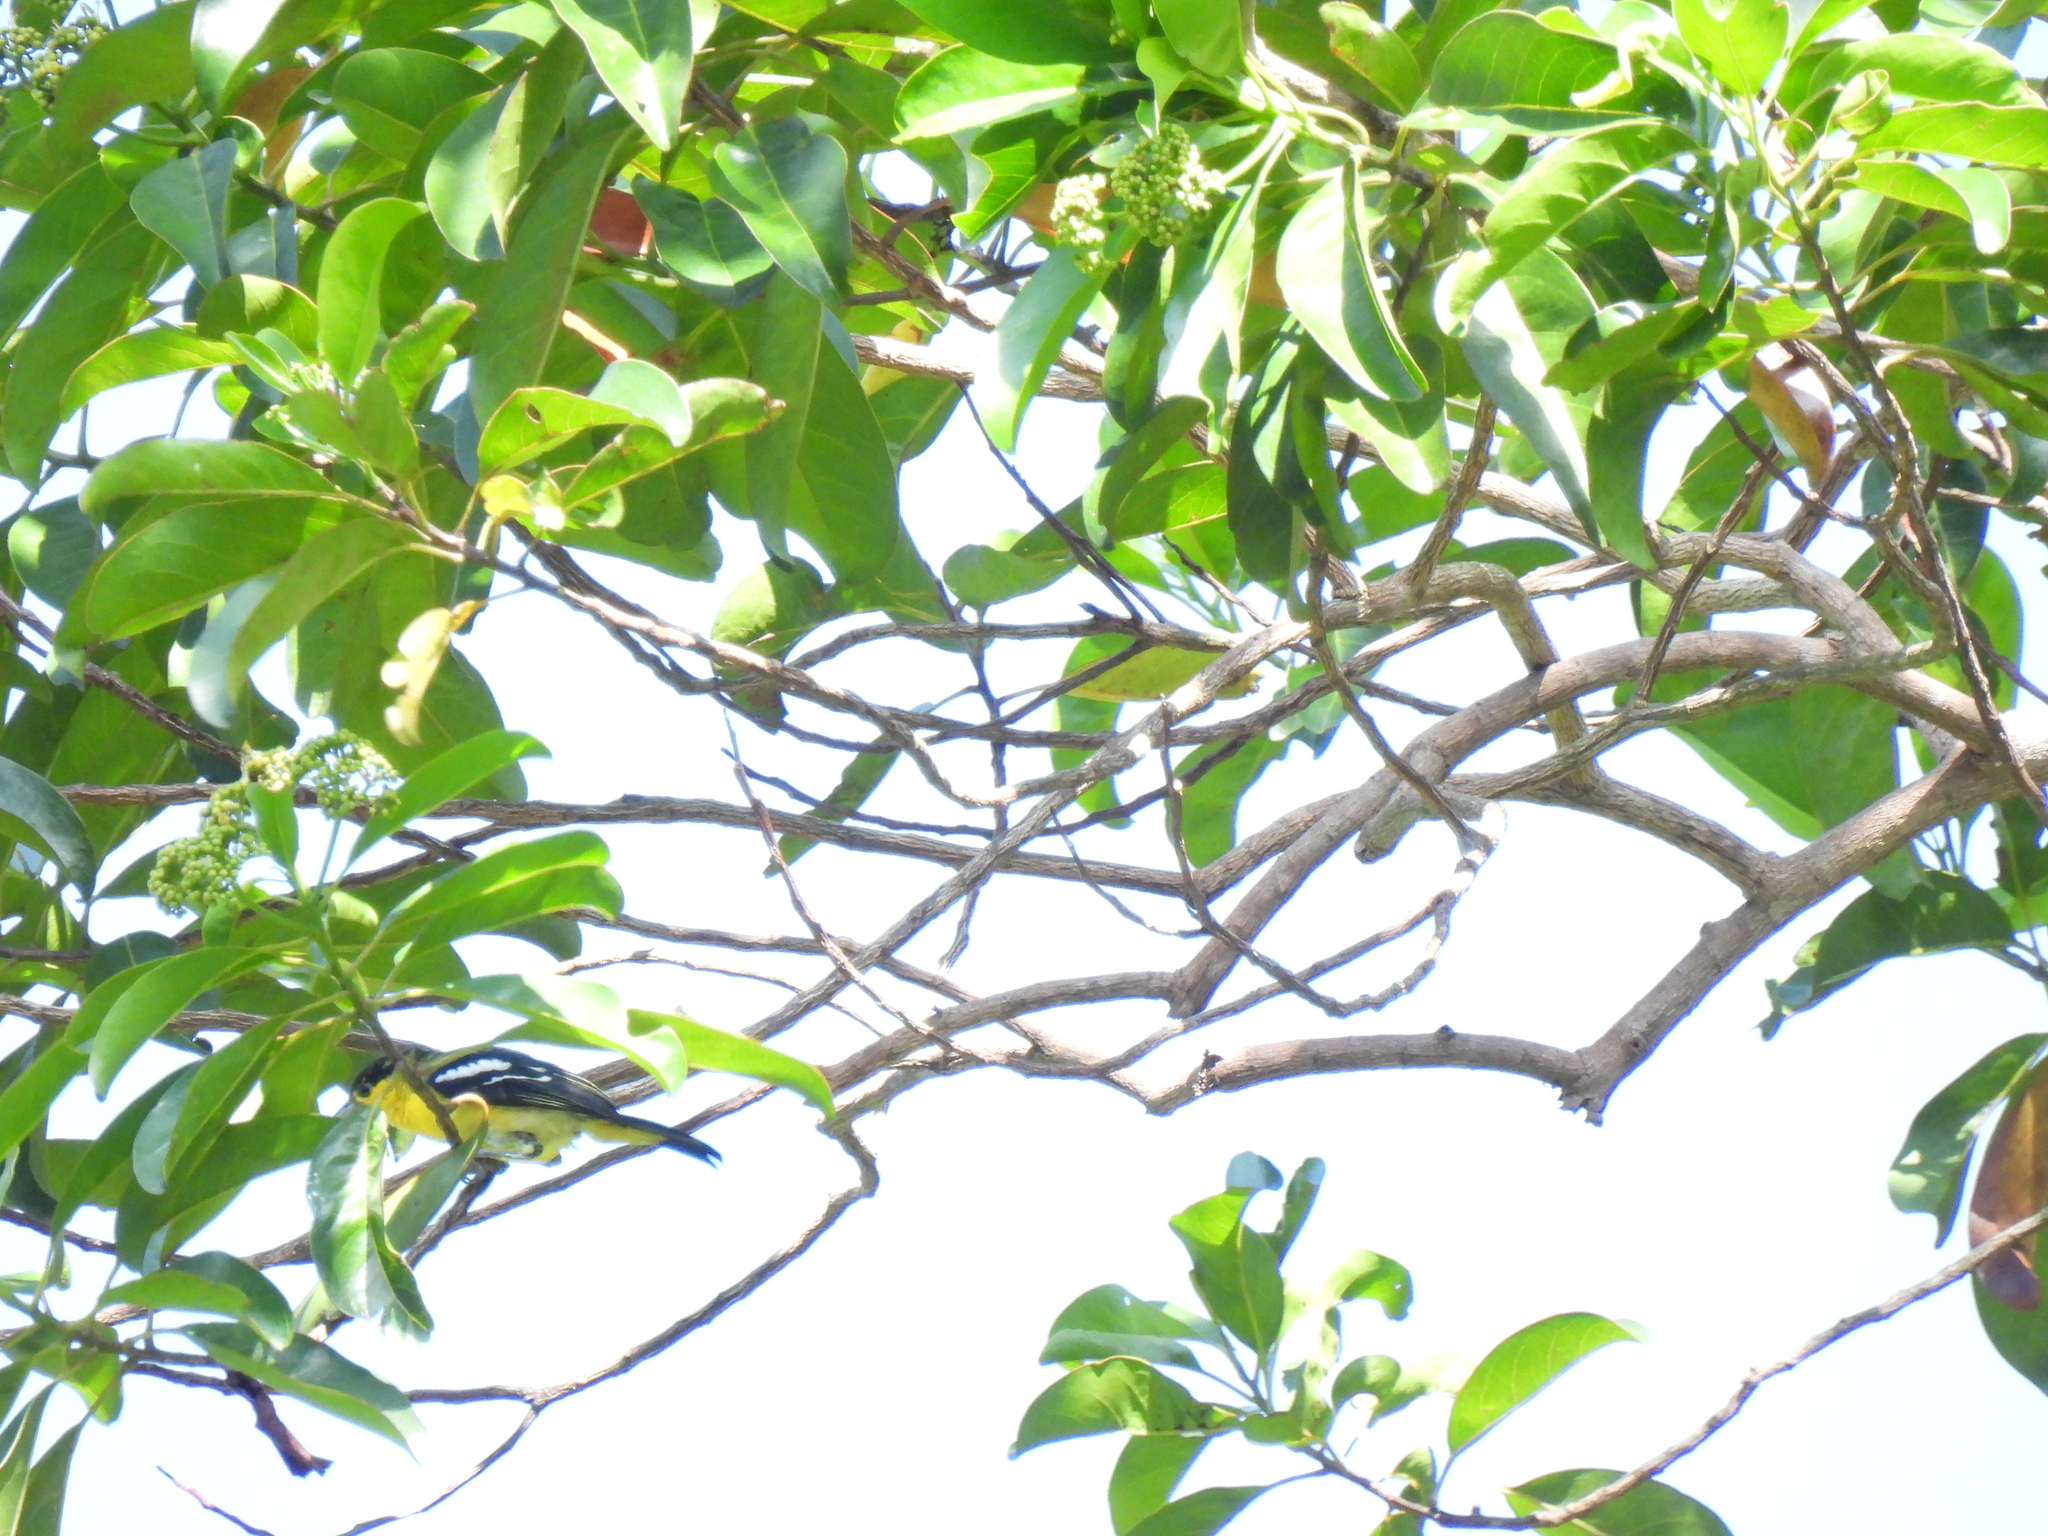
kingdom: Animalia
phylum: Chordata
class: Aves
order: Passeriformes
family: Aegithinidae
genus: Aegithina
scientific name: Aegithina tiphia
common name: Common iora
